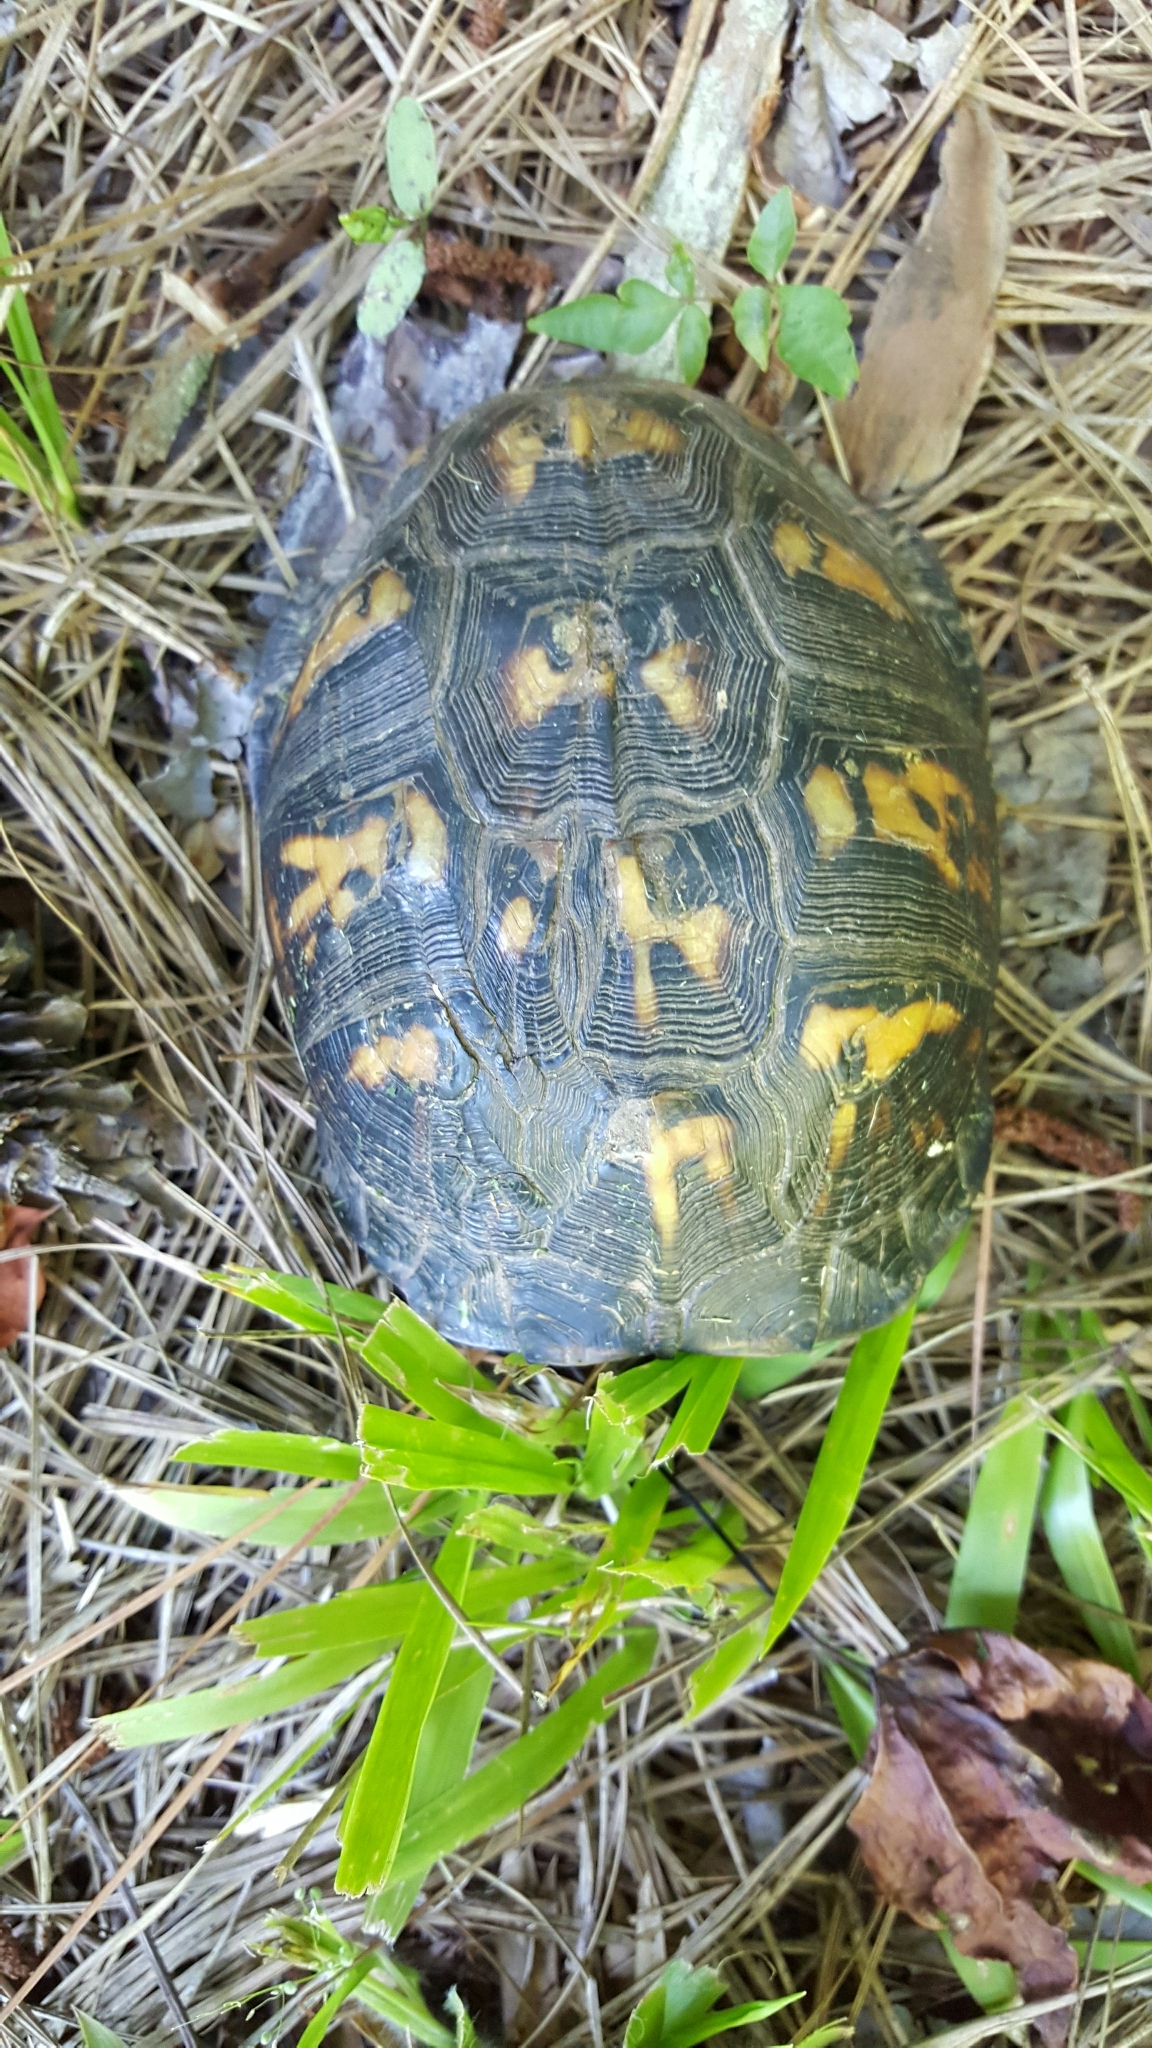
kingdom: Animalia
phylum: Chordata
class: Testudines
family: Emydidae
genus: Terrapene
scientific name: Terrapene carolina
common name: Common box turtle
